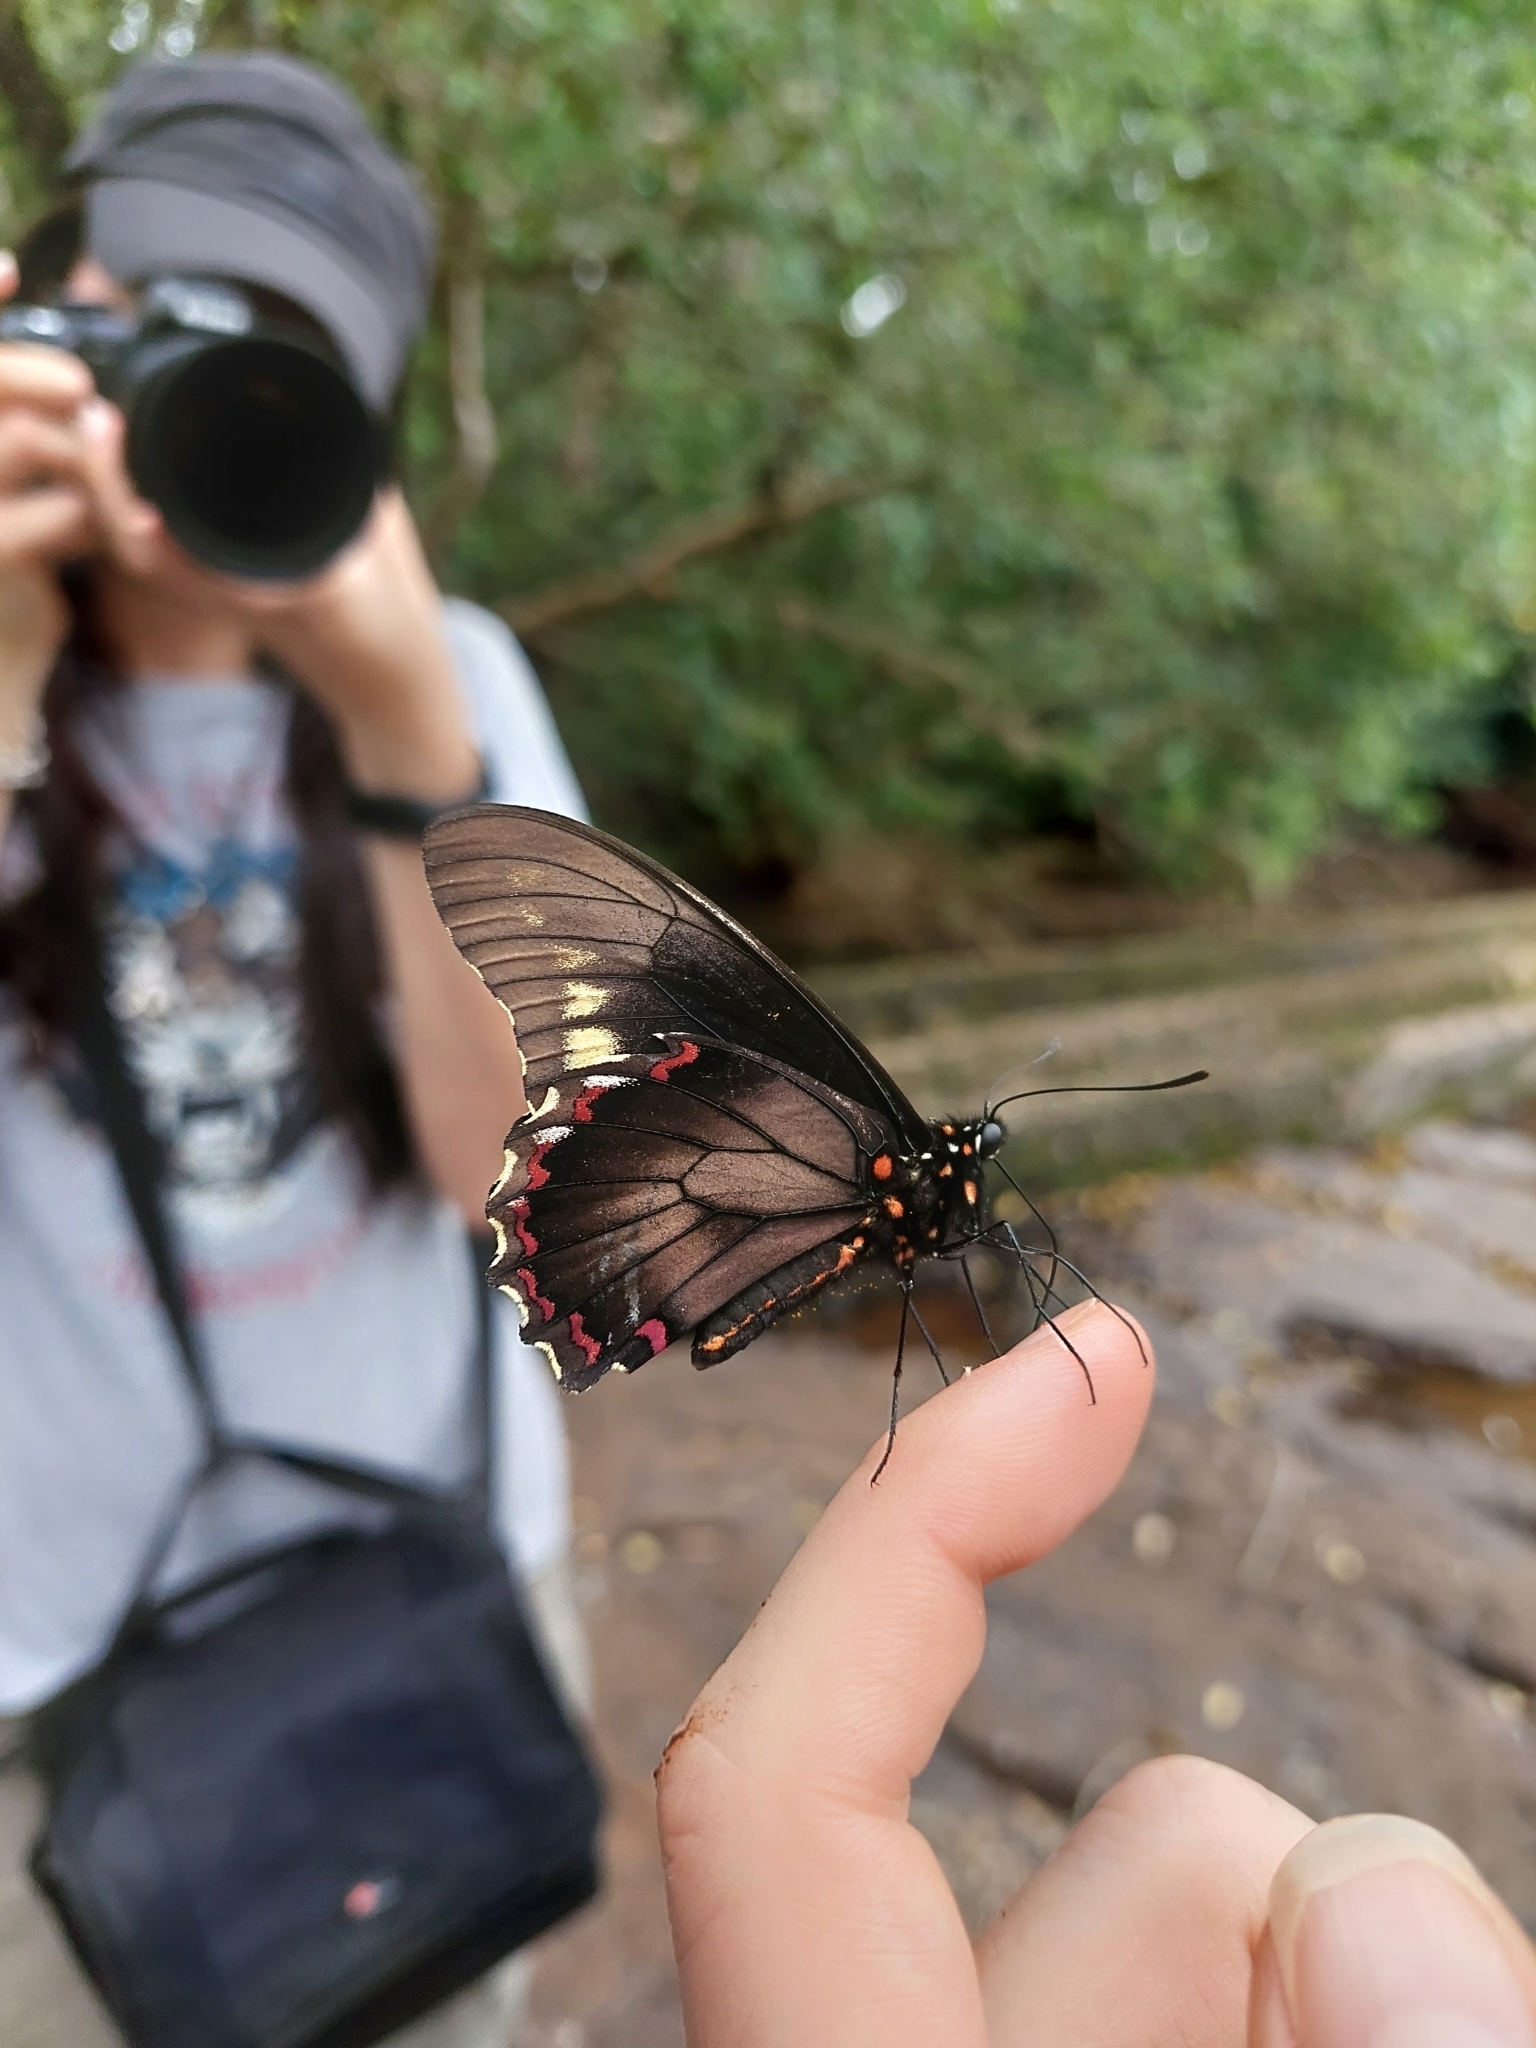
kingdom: Animalia
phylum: Arthropoda
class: Insecta
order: Lepidoptera
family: Papilionidae
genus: Battus
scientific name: Battus polydamas
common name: Polydamas swallowtail
